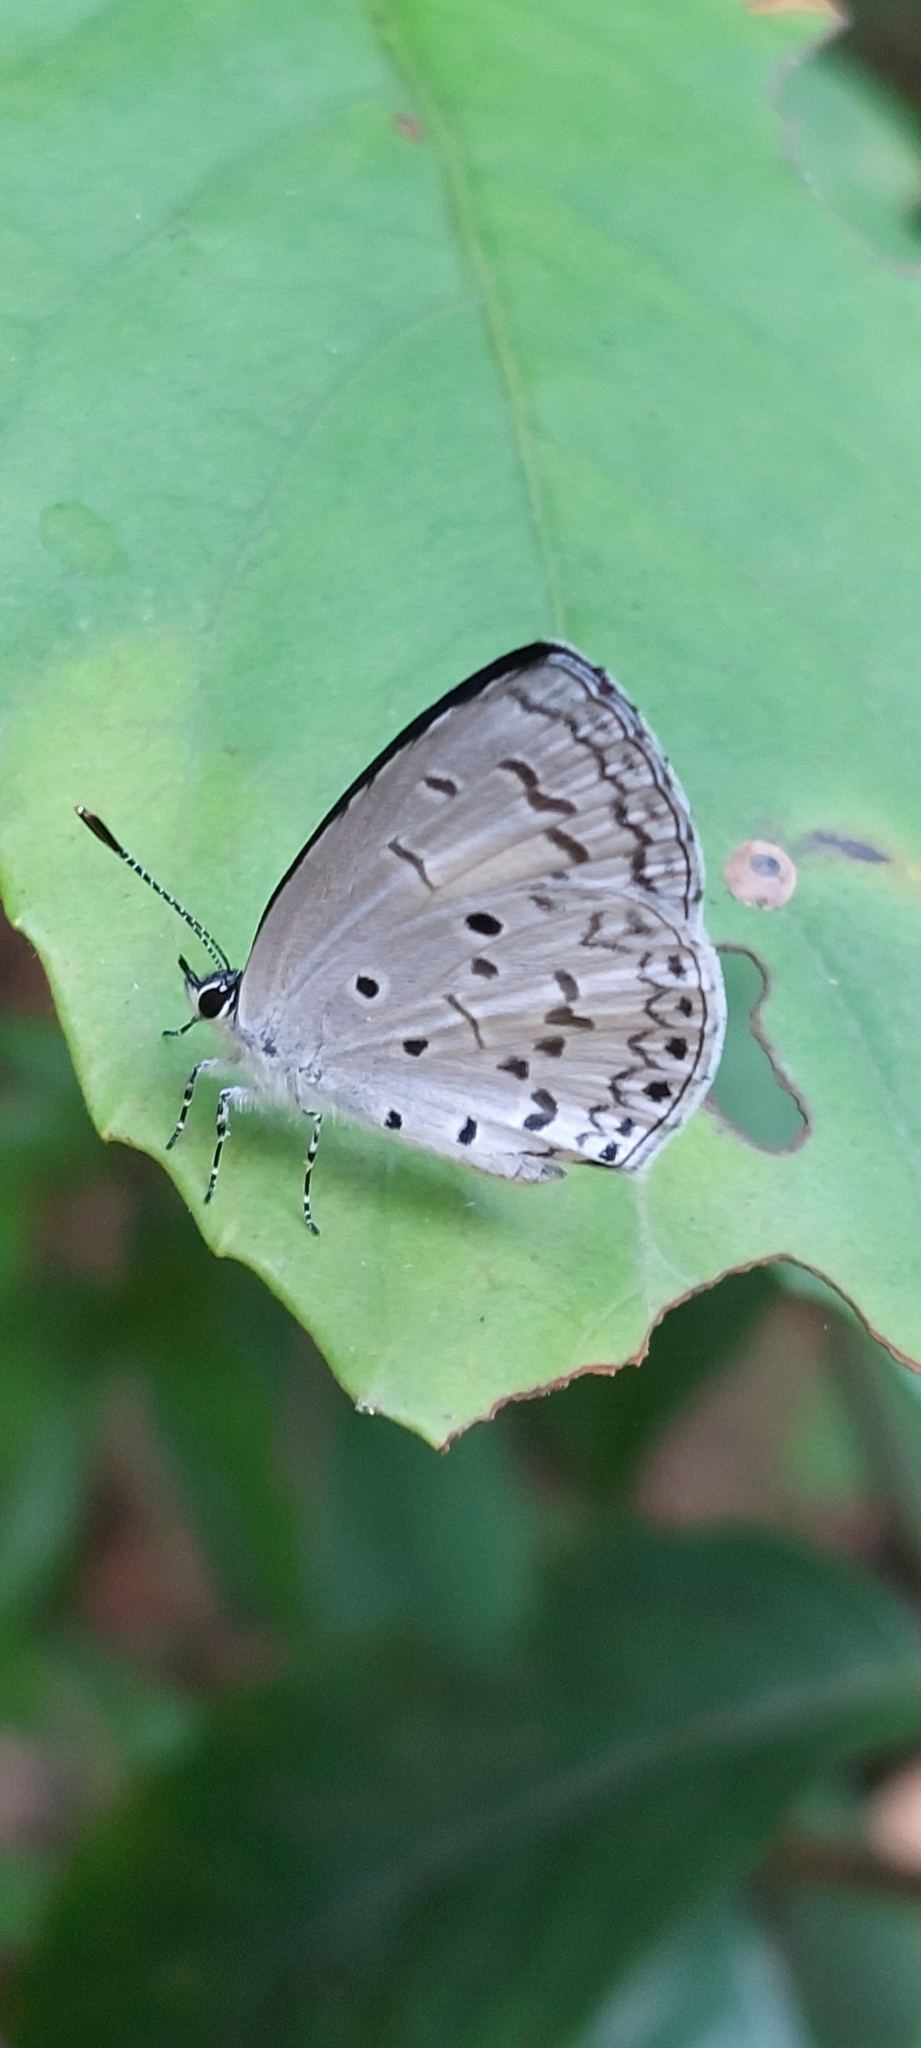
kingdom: Animalia
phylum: Arthropoda
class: Insecta
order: Lepidoptera
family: Lycaenidae
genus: Celastrina
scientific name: Celastrina lavendularis
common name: Plain hedge blue
